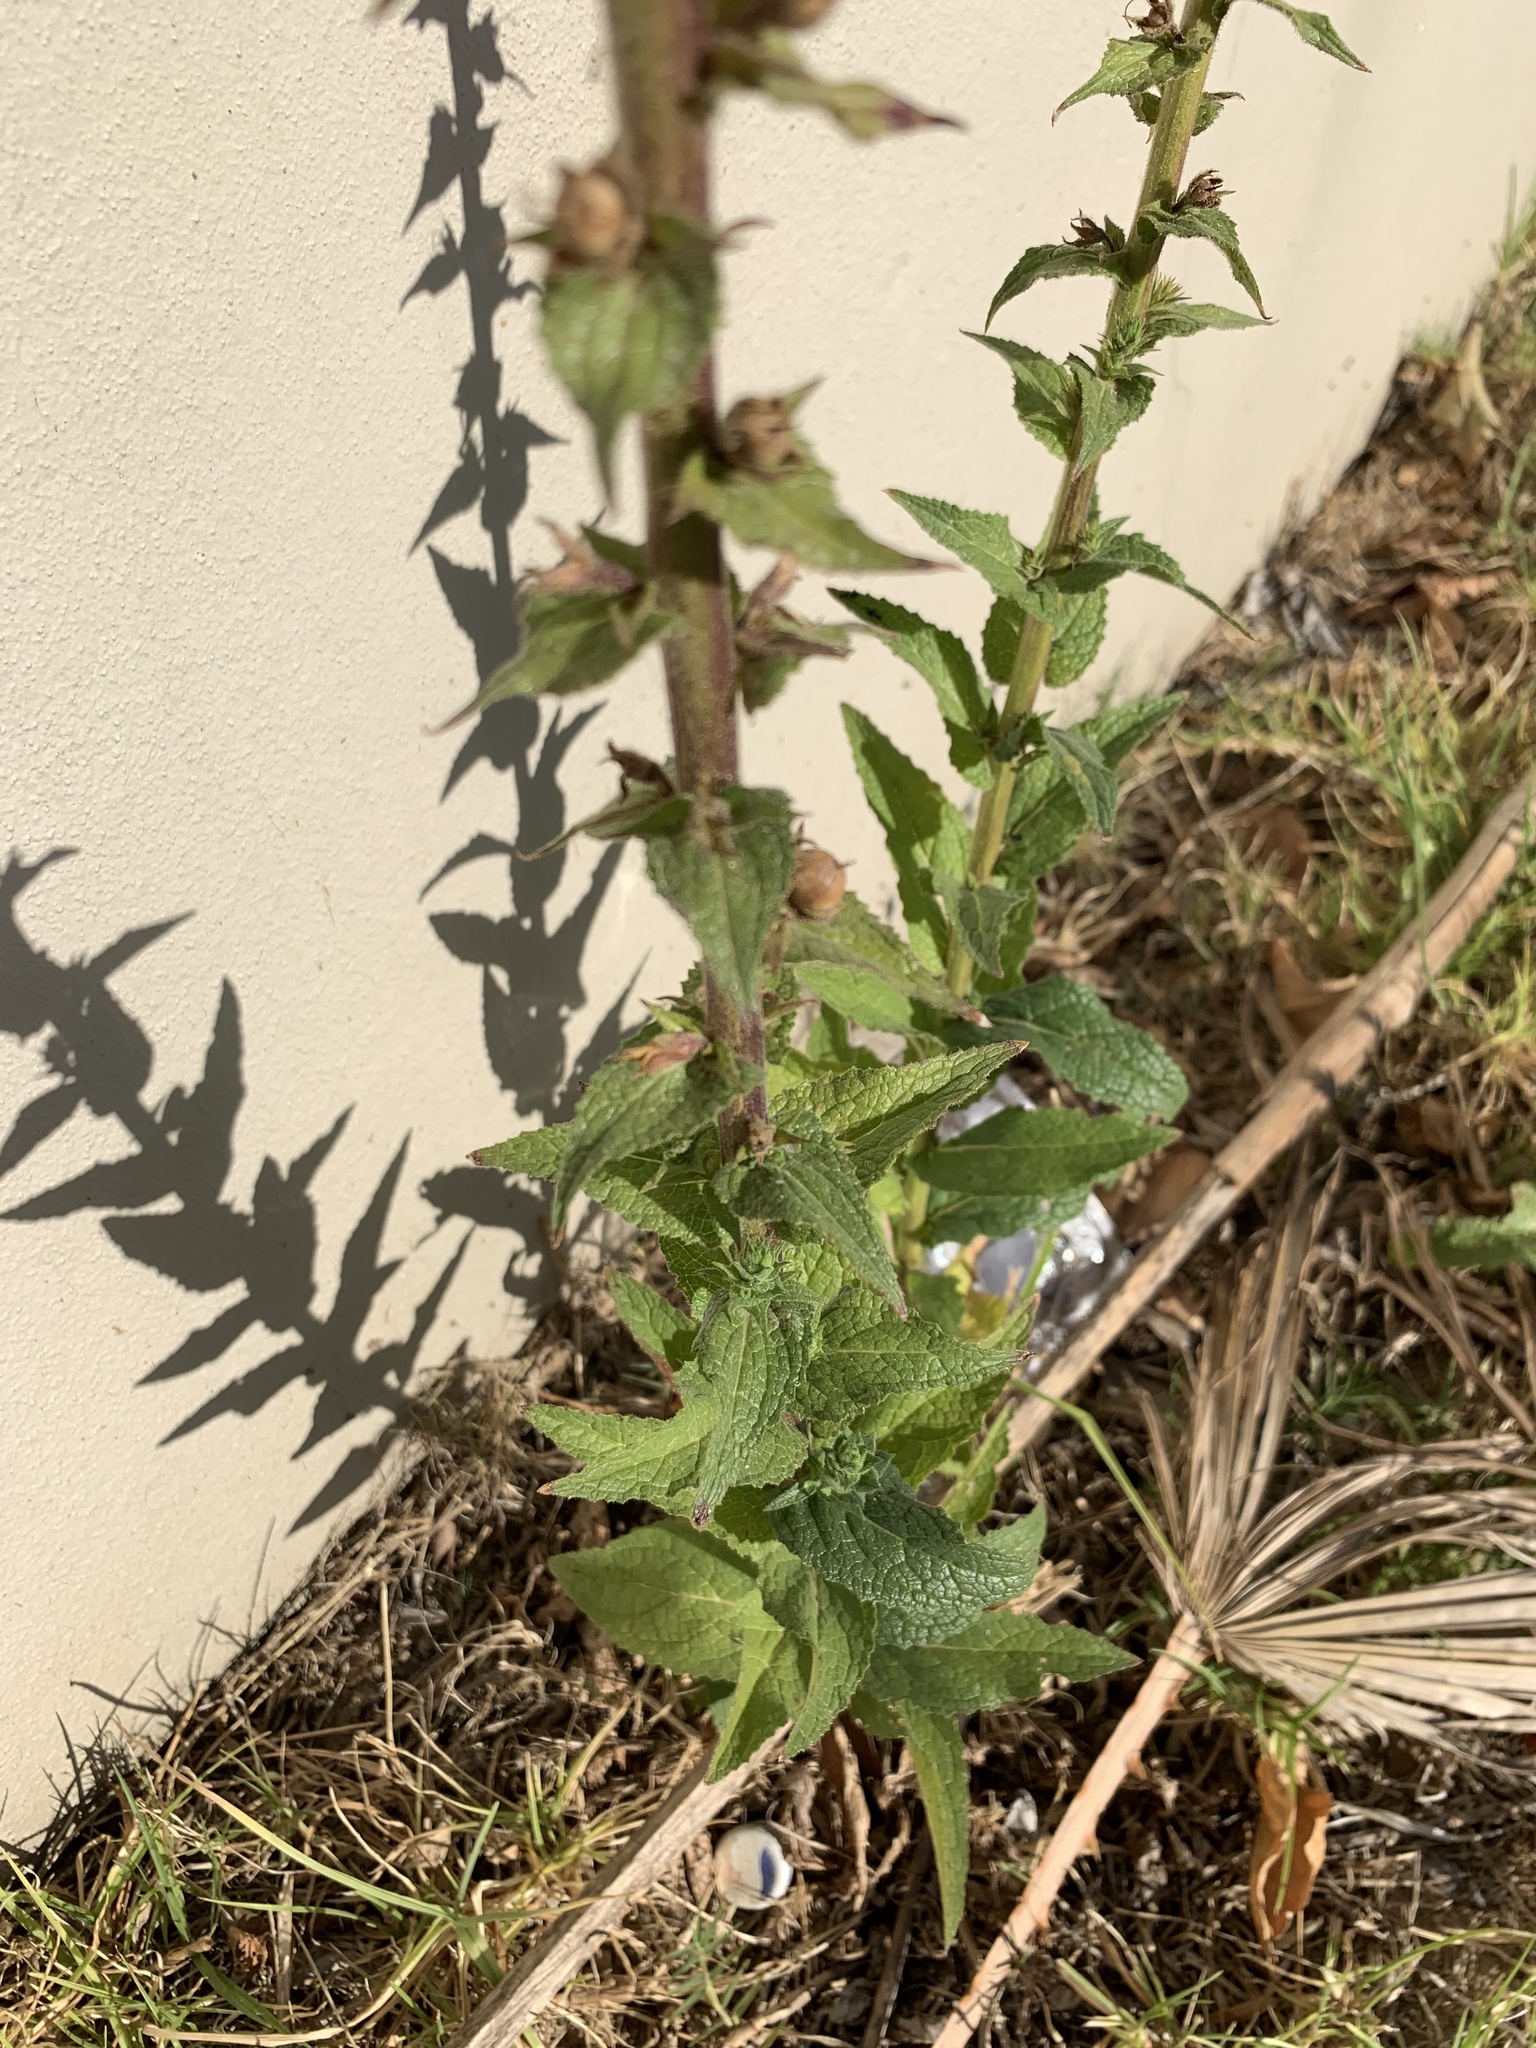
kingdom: Plantae
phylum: Tracheophyta
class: Magnoliopsida
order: Lamiales
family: Scrophulariaceae
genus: Verbascum
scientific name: Verbascum virgatum
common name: Twiggy mullein
